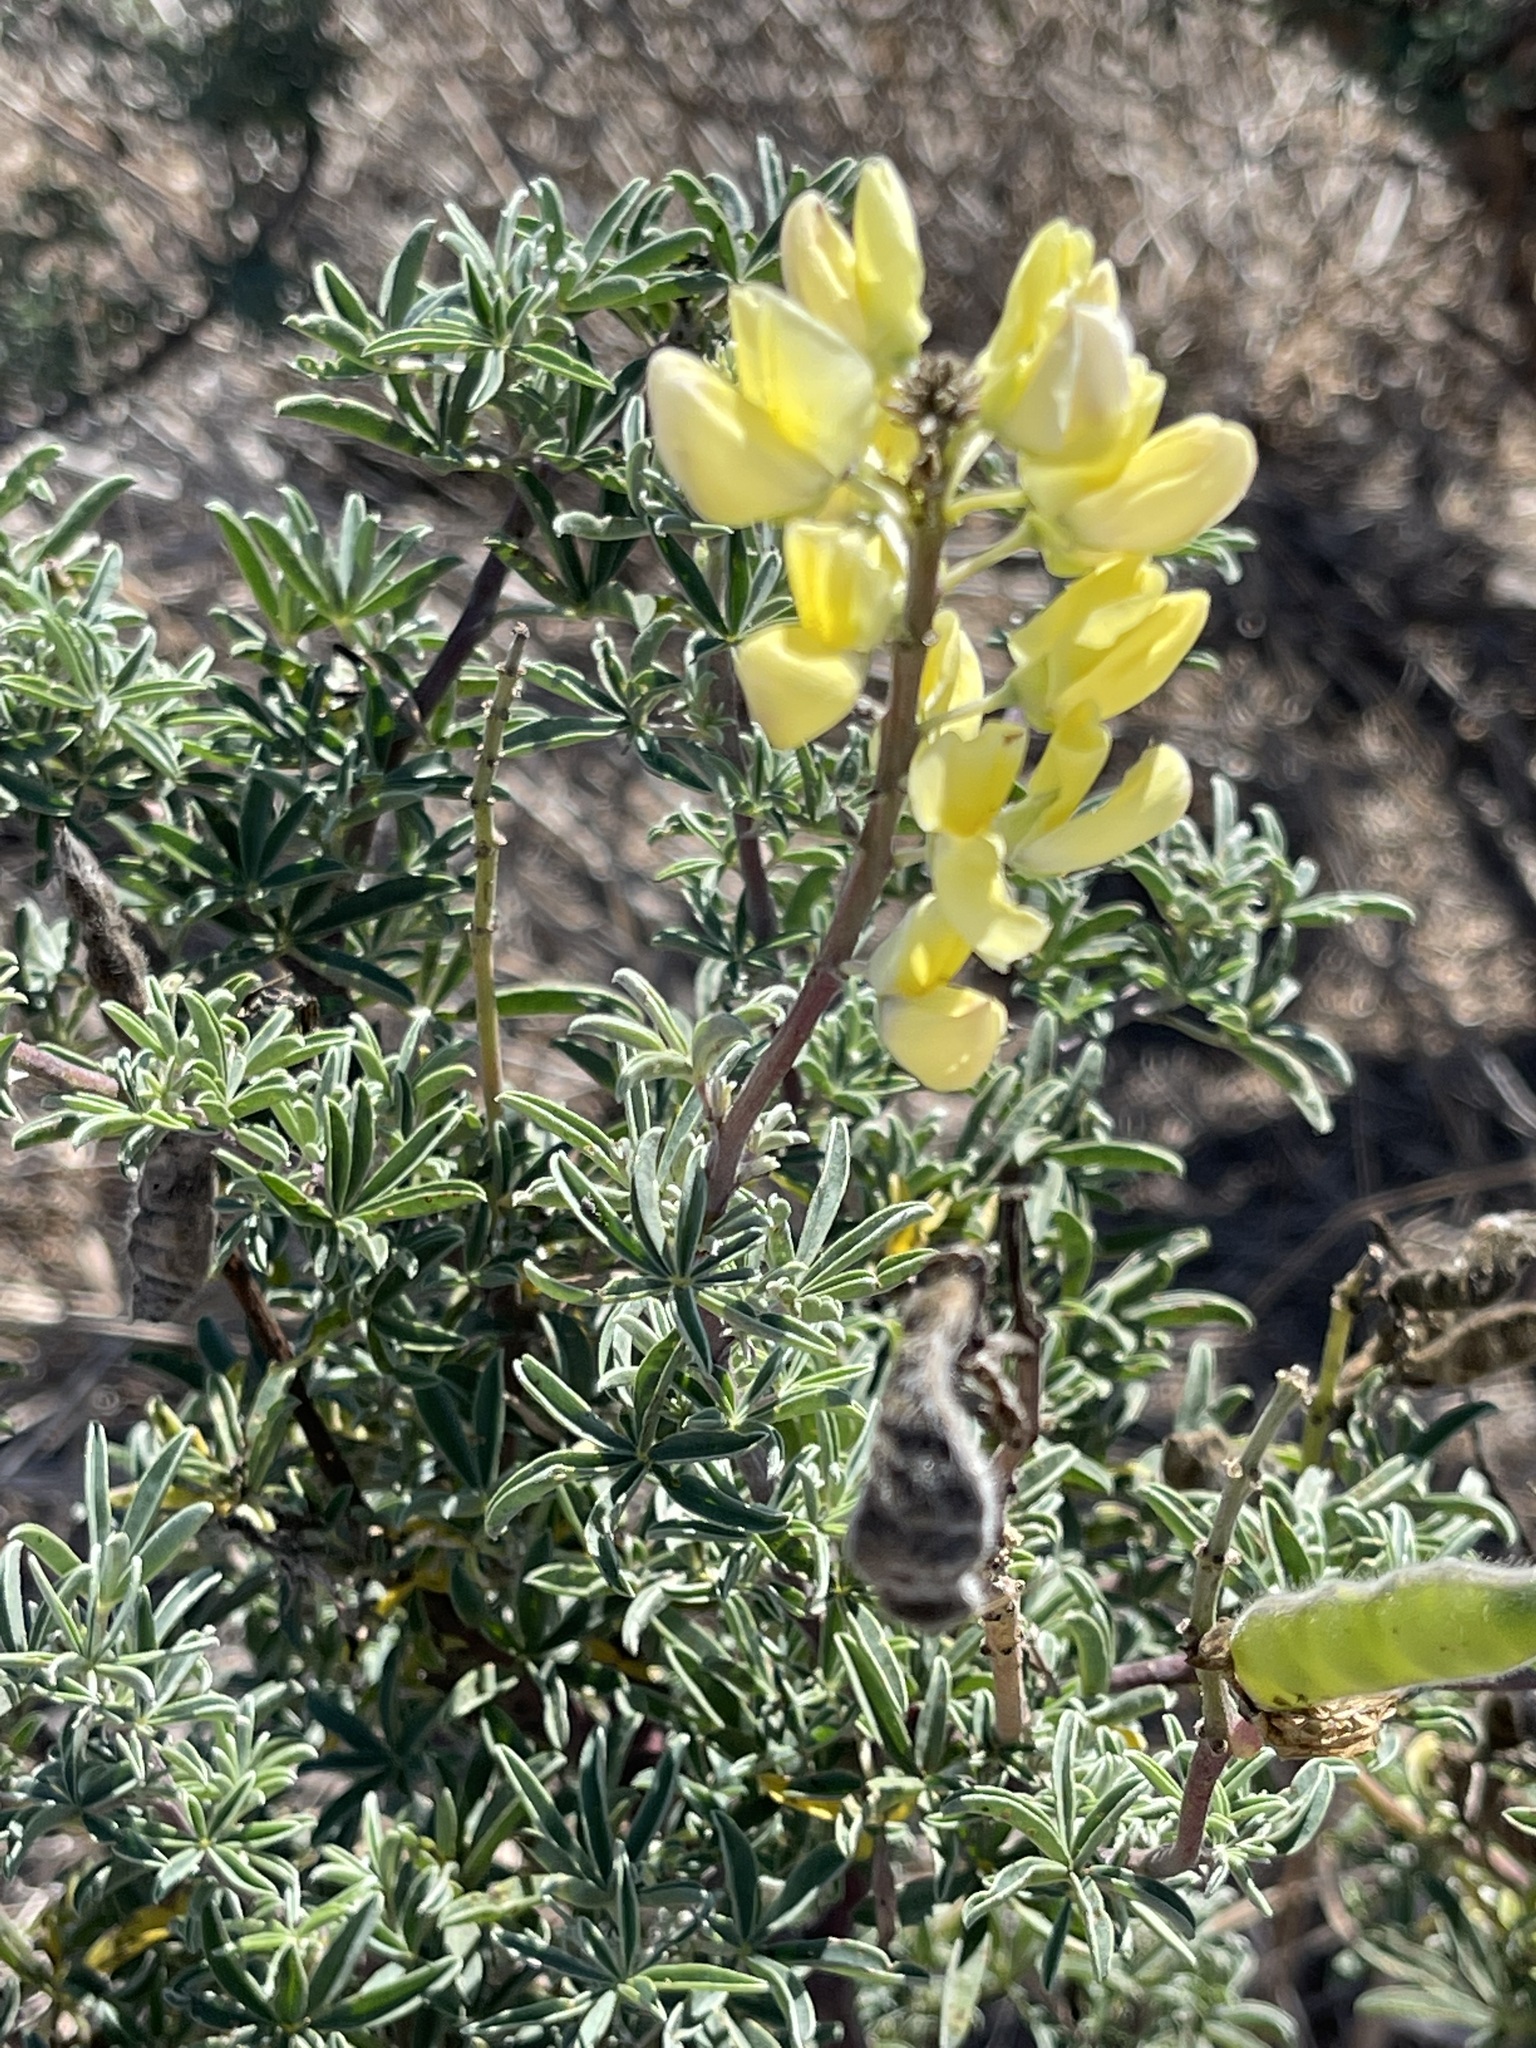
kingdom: Plantae
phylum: Tracheophyta
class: Magnoliopsida
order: Fabales
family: Fabaceae
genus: Lupinus
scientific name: Lupinus arboreus
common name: Yellow bush lupine
